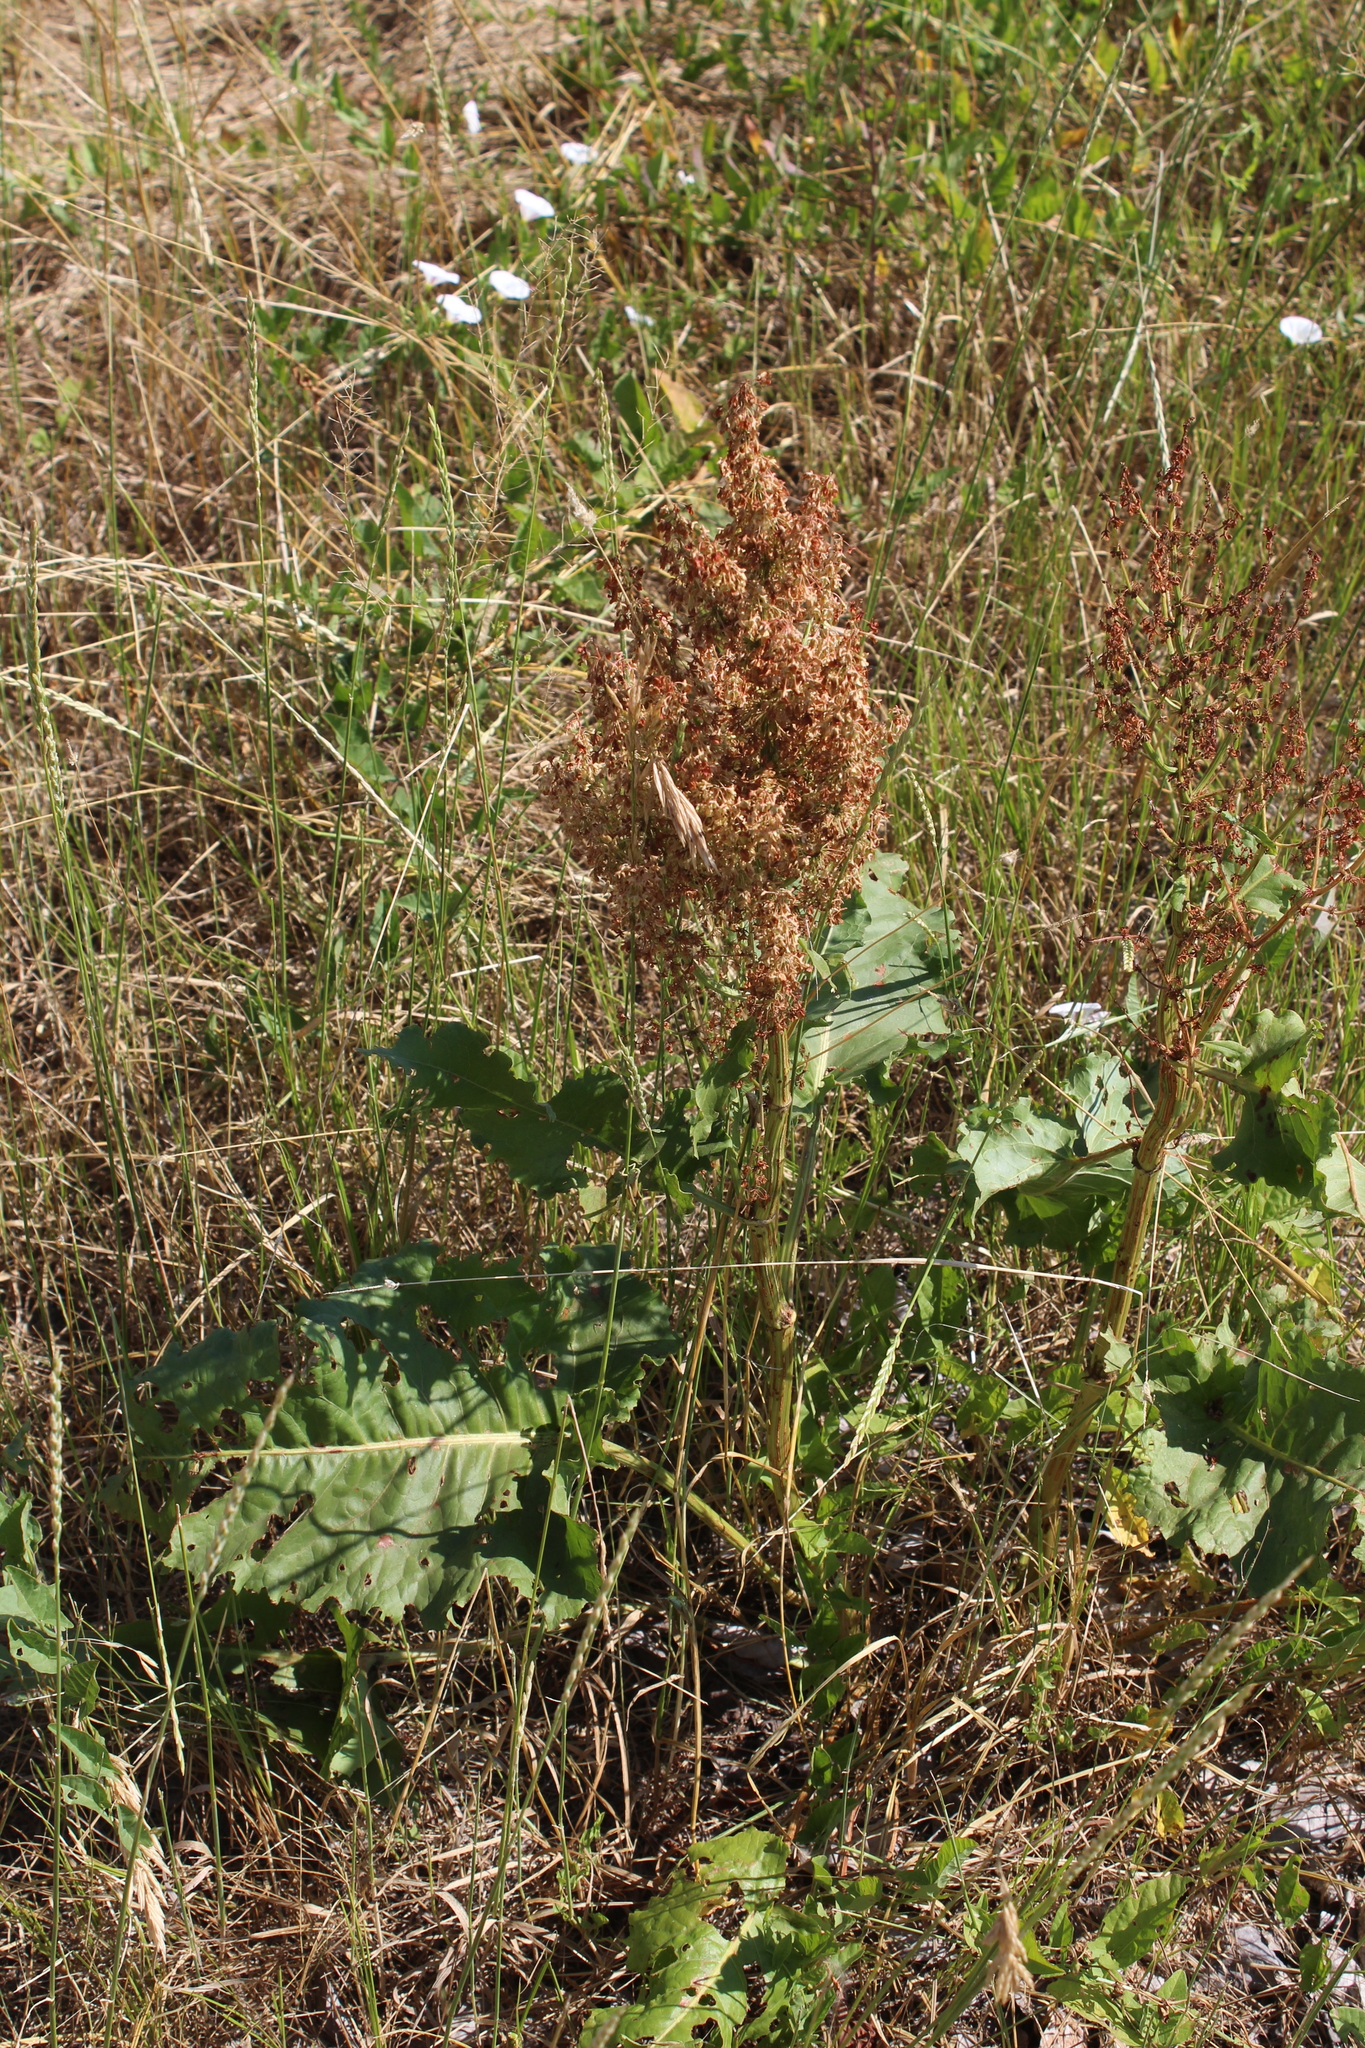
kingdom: Plantae
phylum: Tracheophyta
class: Magnoliopsida
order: Caryophyllales
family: Polygonaceae
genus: Rumex
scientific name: Rumex confertus
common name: Russian dock
